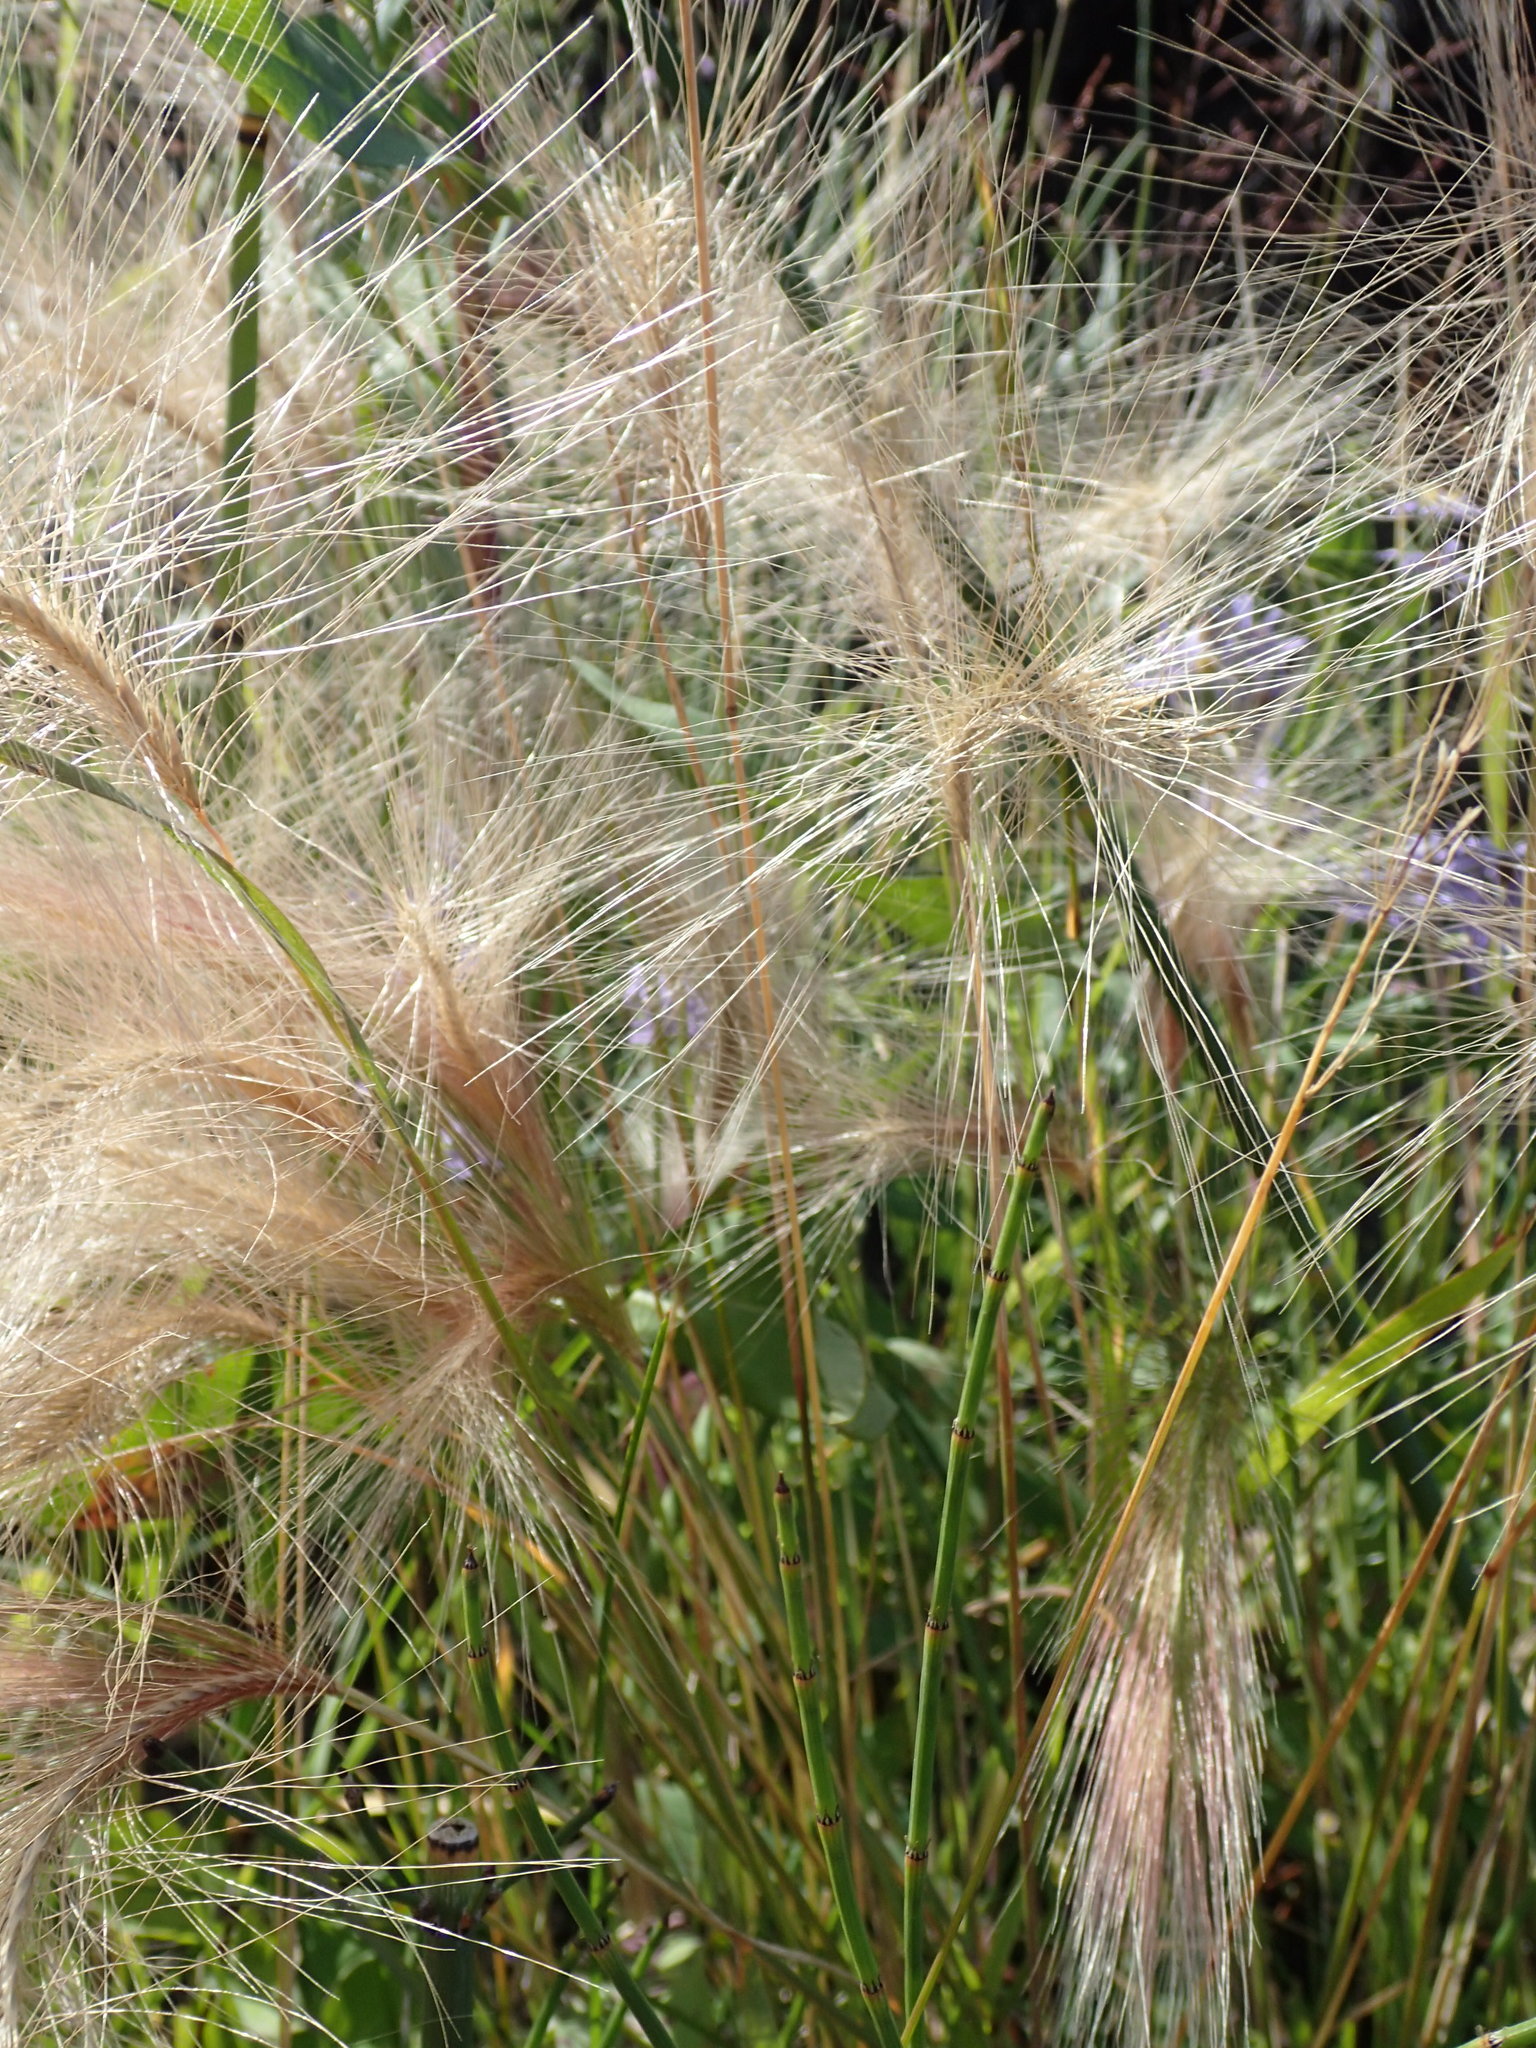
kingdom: Plantae
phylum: Tracheophyta
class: Liliopsida
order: Poales
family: Poaceae
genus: Hordeum
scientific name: Hordeum jubatum
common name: Foxtail barley
